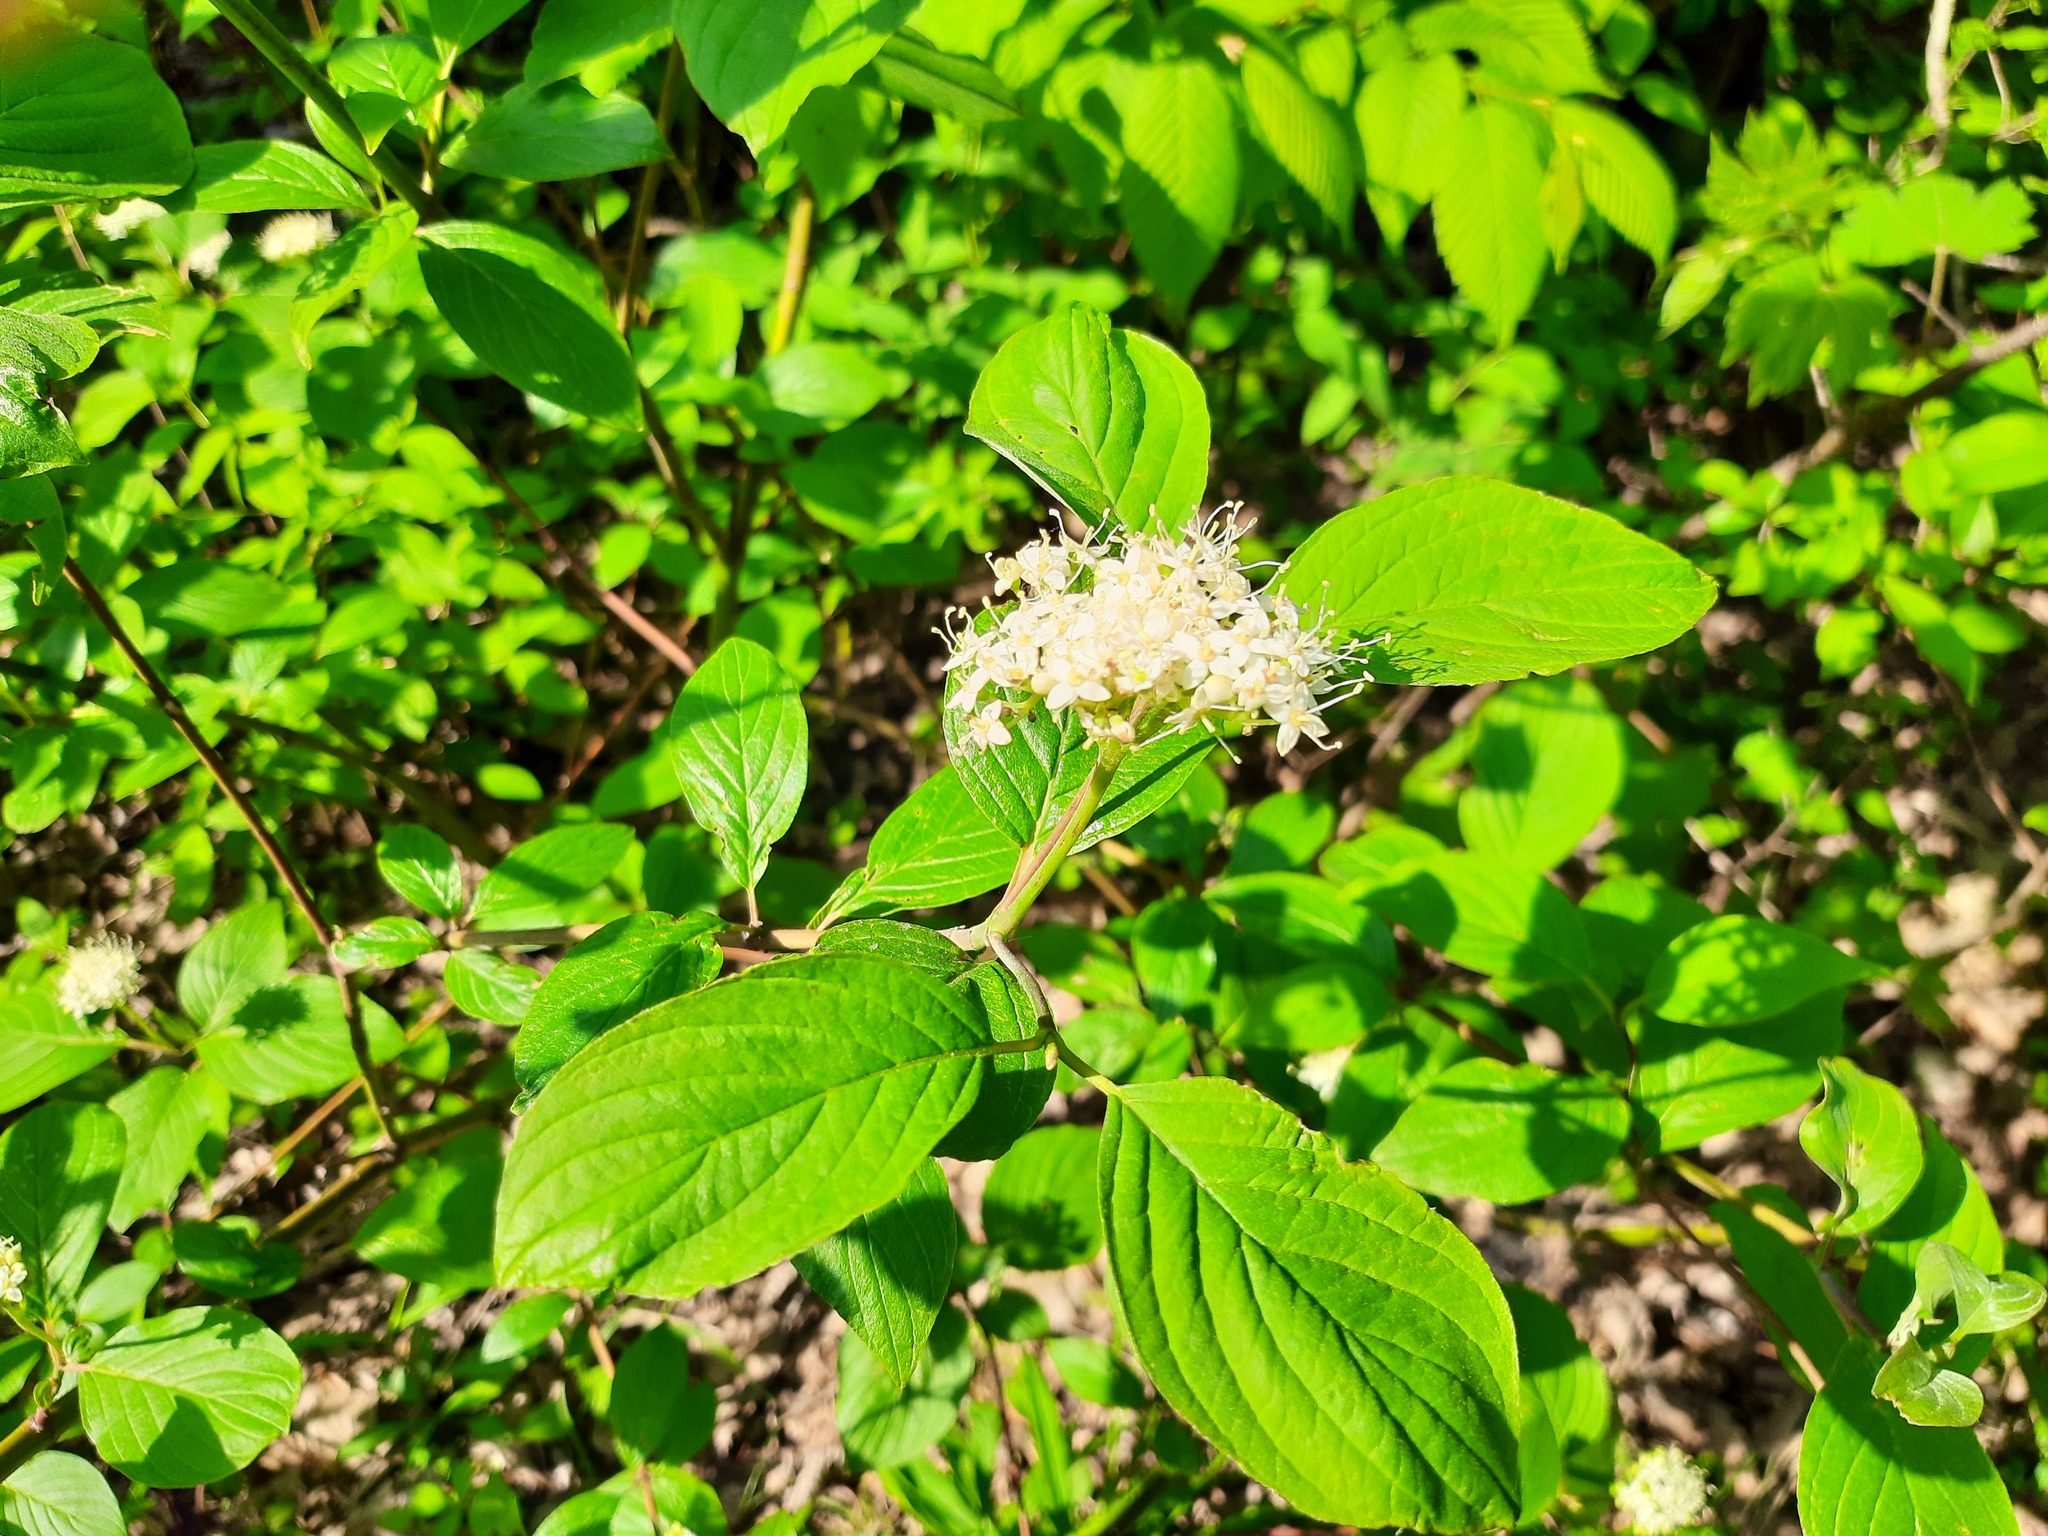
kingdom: Plantae
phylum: Tracheophyta
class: Magnoliopsida
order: Cornales
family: Cornaceae
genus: Cornus
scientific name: Cornus amomum
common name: Silky dogwood
